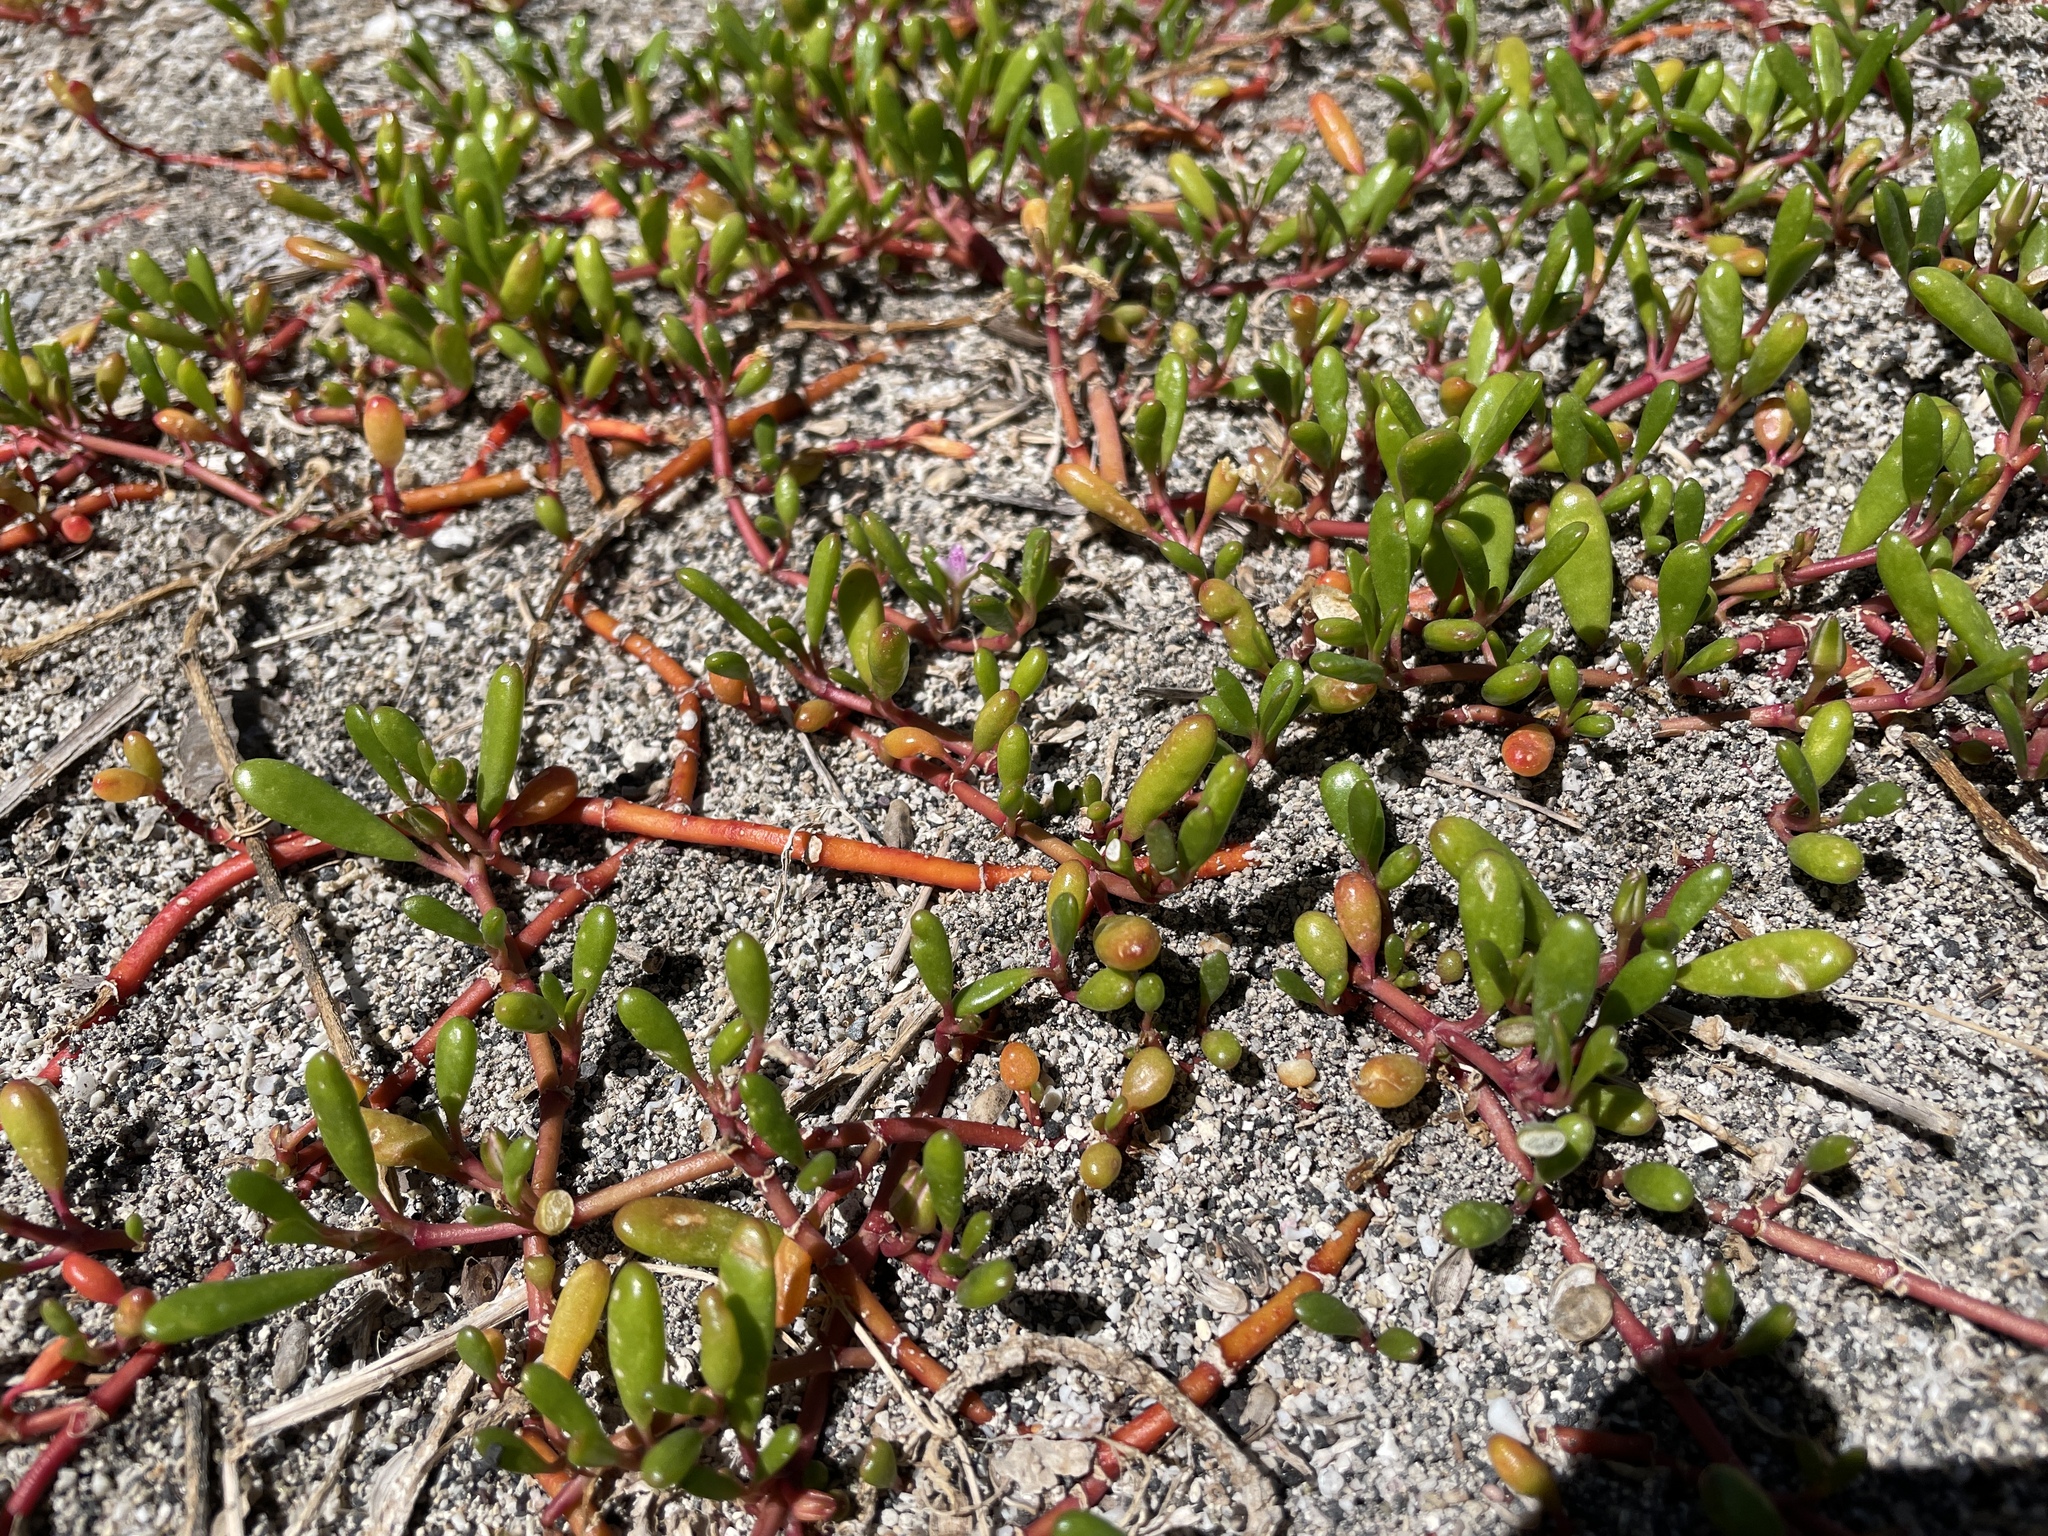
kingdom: Plantae
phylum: Tracheophyta
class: Magnoliopsida
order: Caryophyllales
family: Aizoaceae
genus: Sesuvium
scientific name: Sesuvium portulacastrum
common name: Sea-purslane
